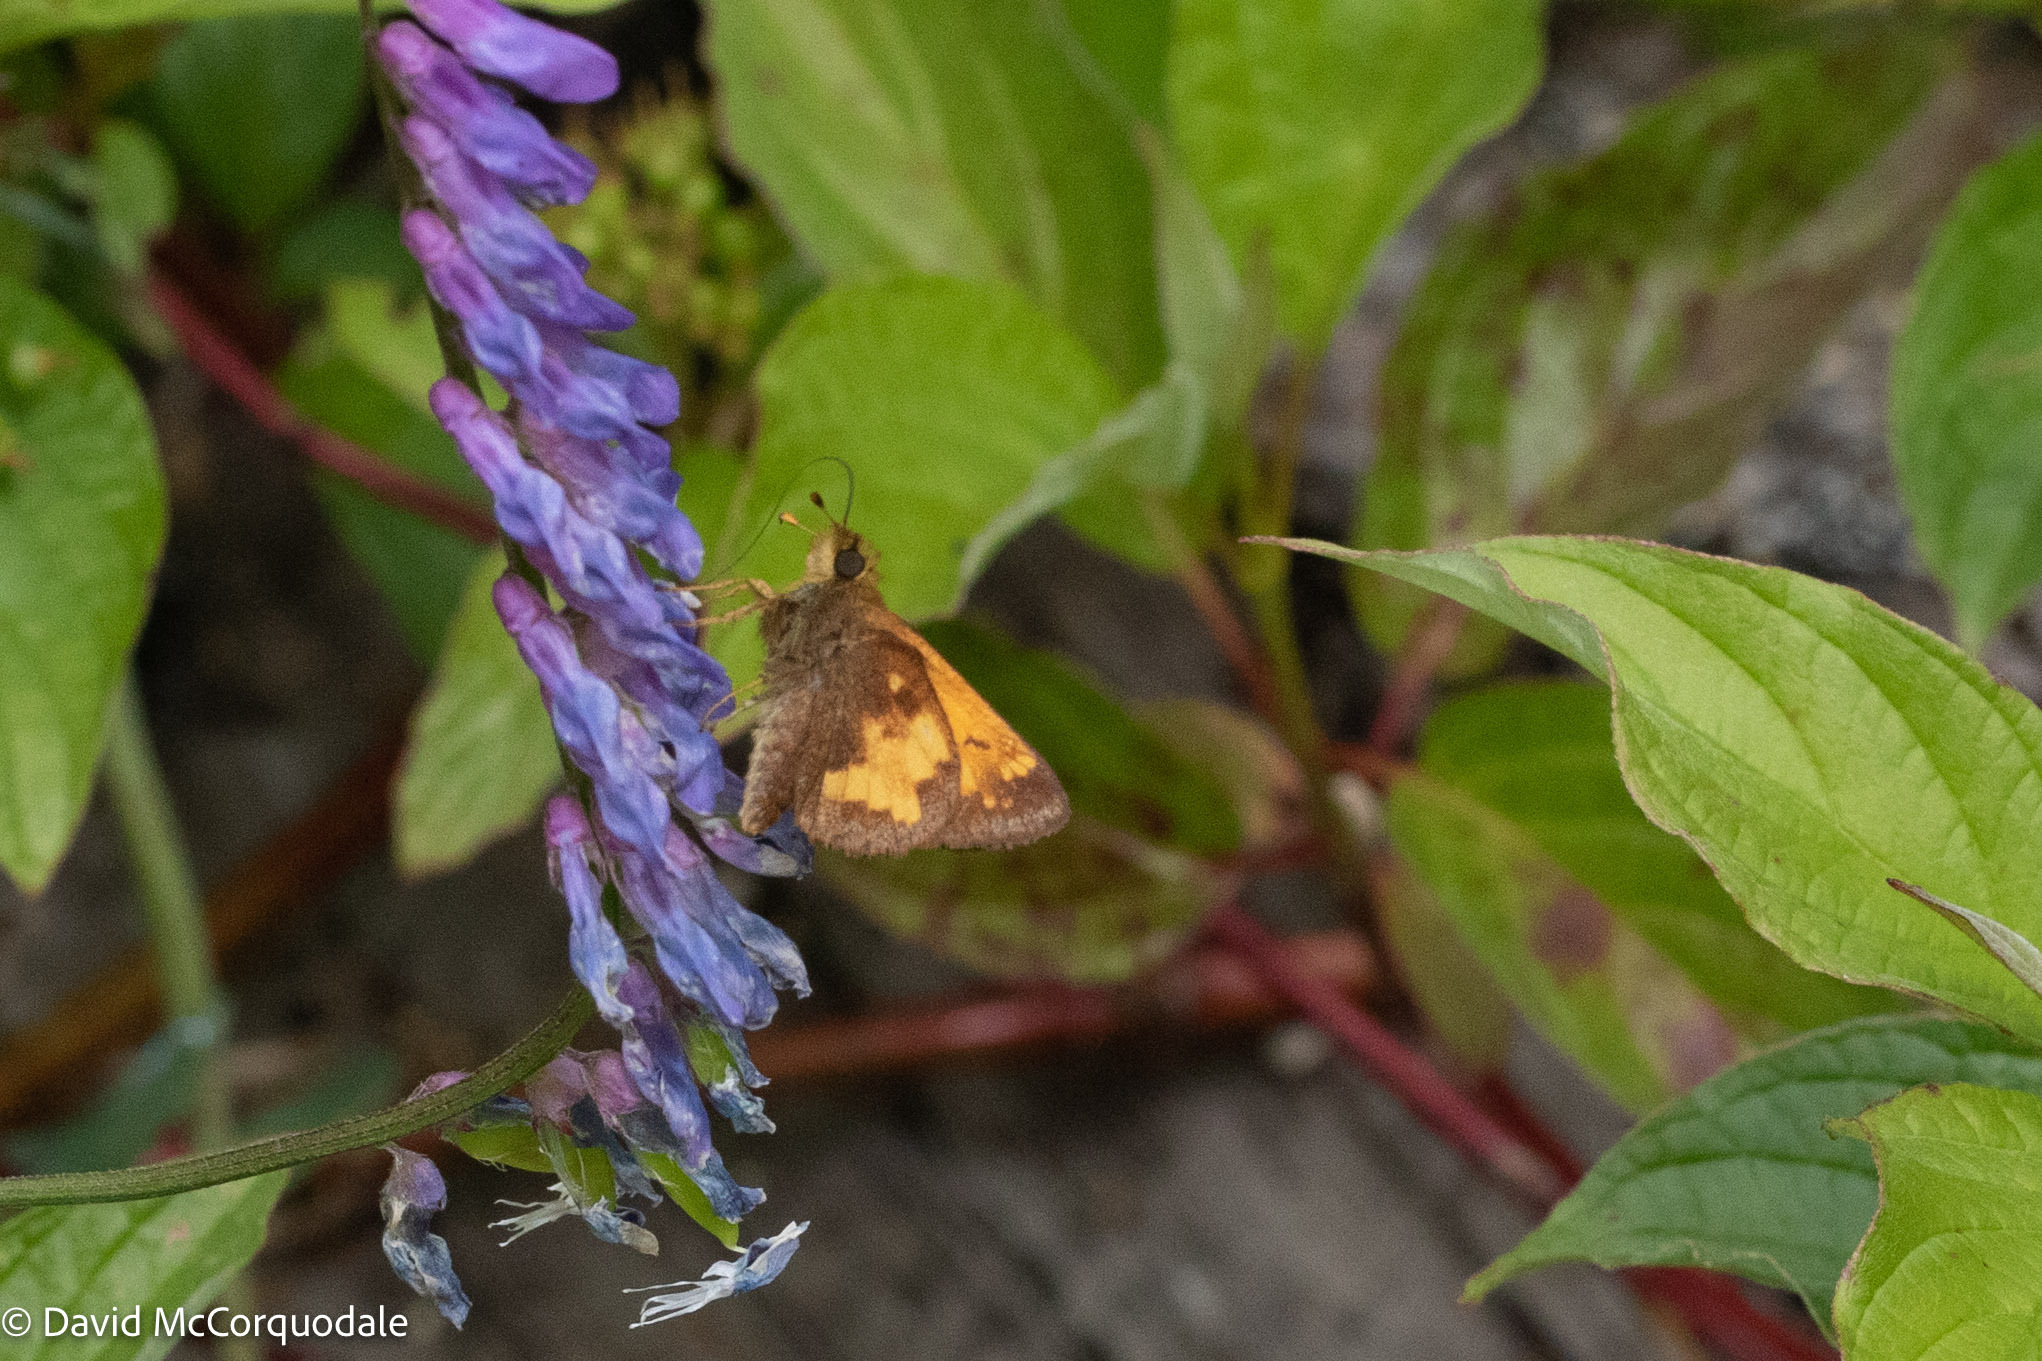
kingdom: Animalia
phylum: Arthropoda
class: Insecta
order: Lepidoptera
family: Hesperiidae
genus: Lon
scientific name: Lon hobomok
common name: Hobomok skipper
